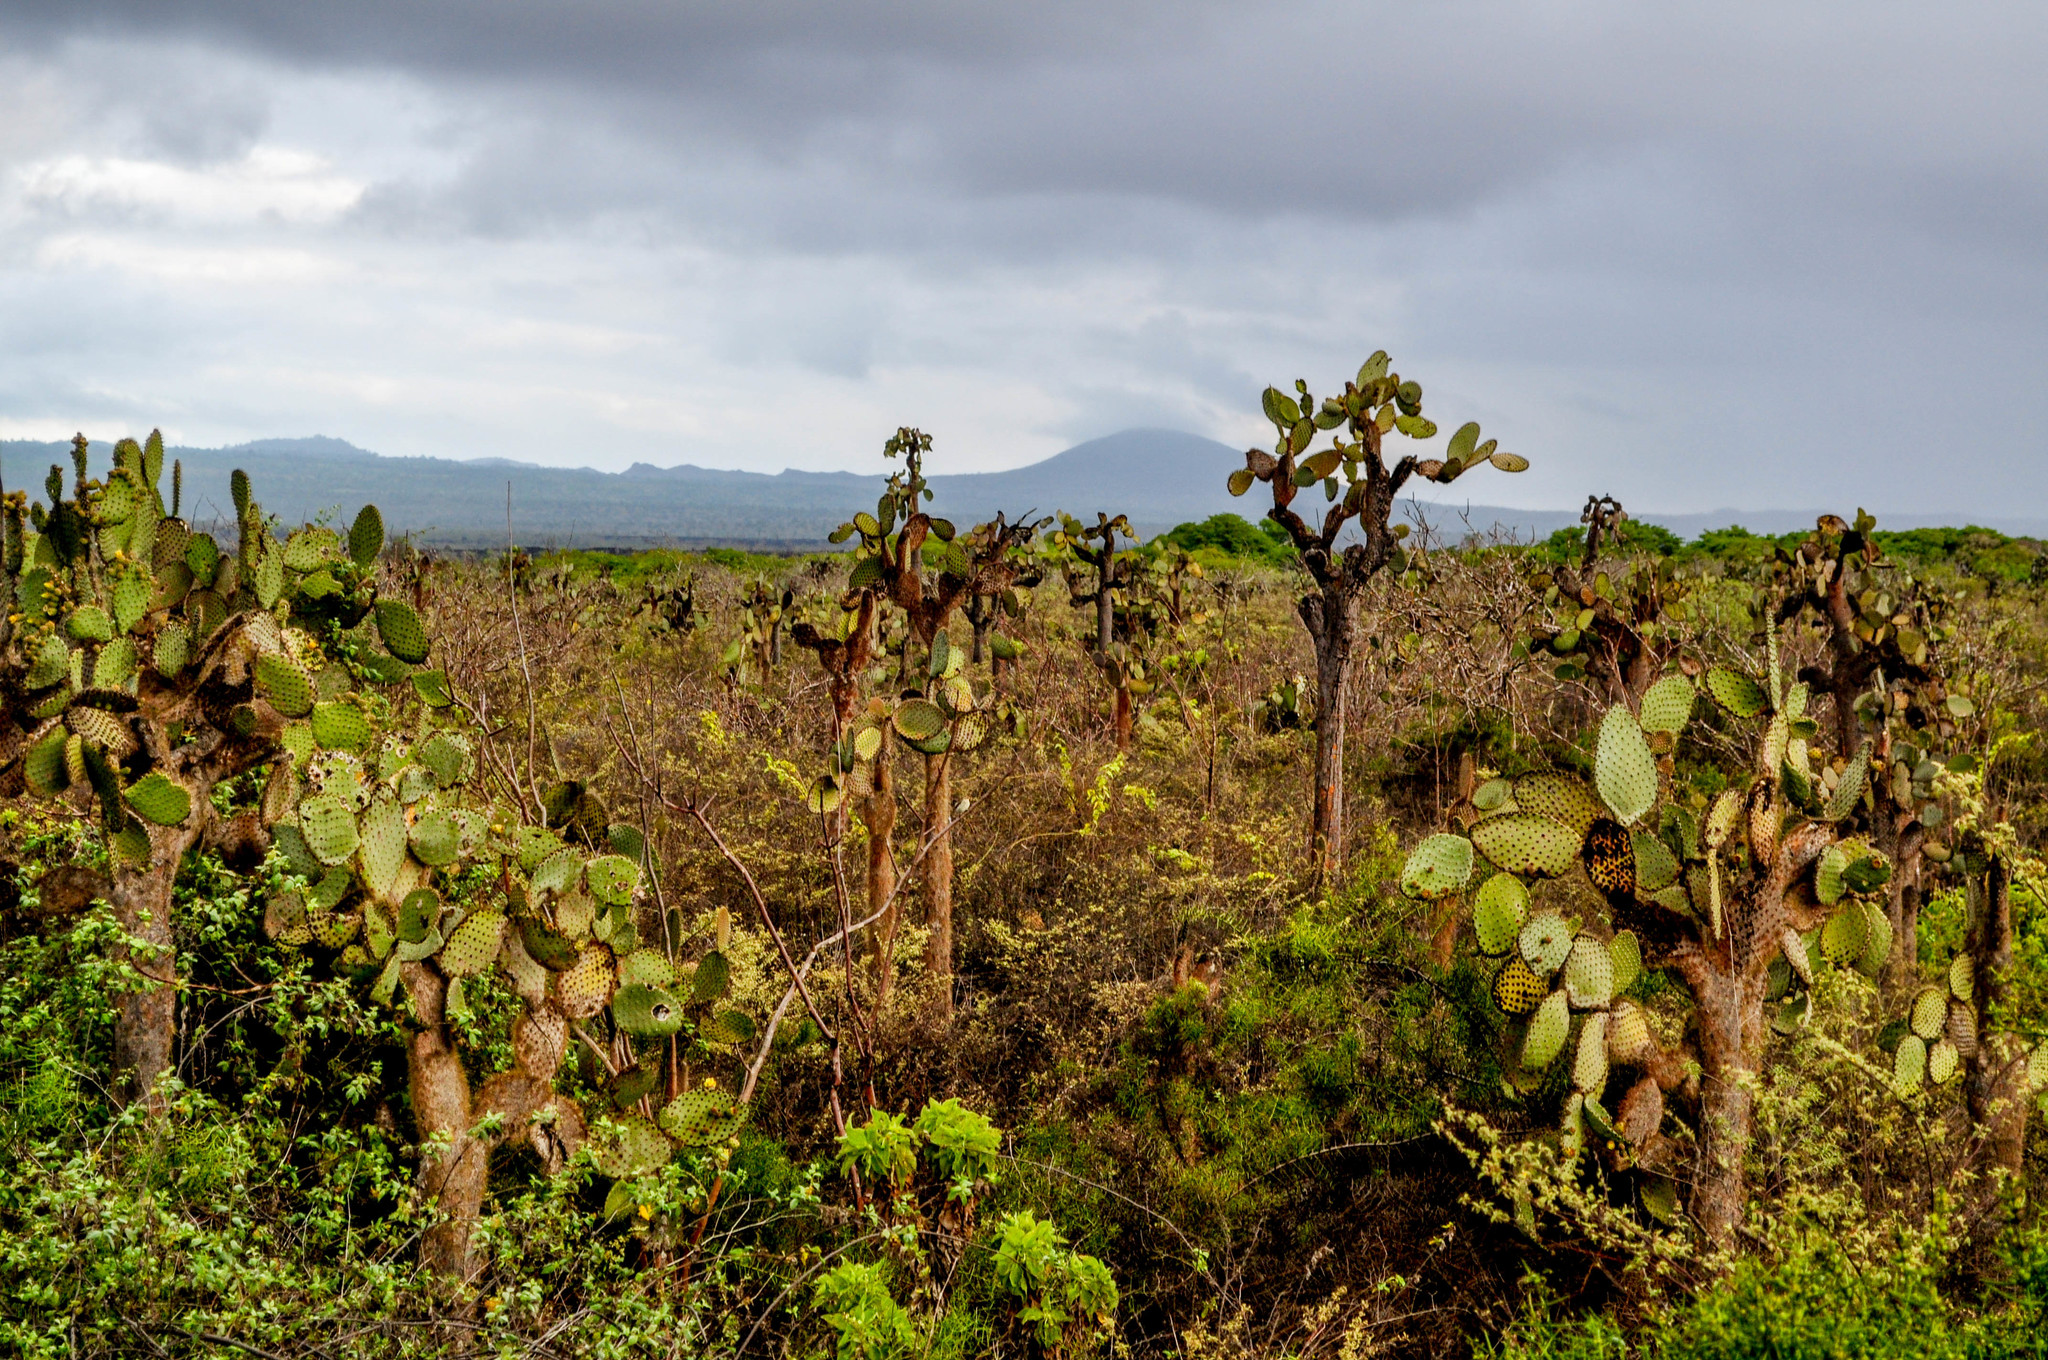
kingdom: Plantae
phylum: Tracheophyta
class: Magnoliopsida
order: Caryophyllales
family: Cactaceae
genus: Opuntia
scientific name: Opuntia galapageia
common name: Galápagos prickly pear
